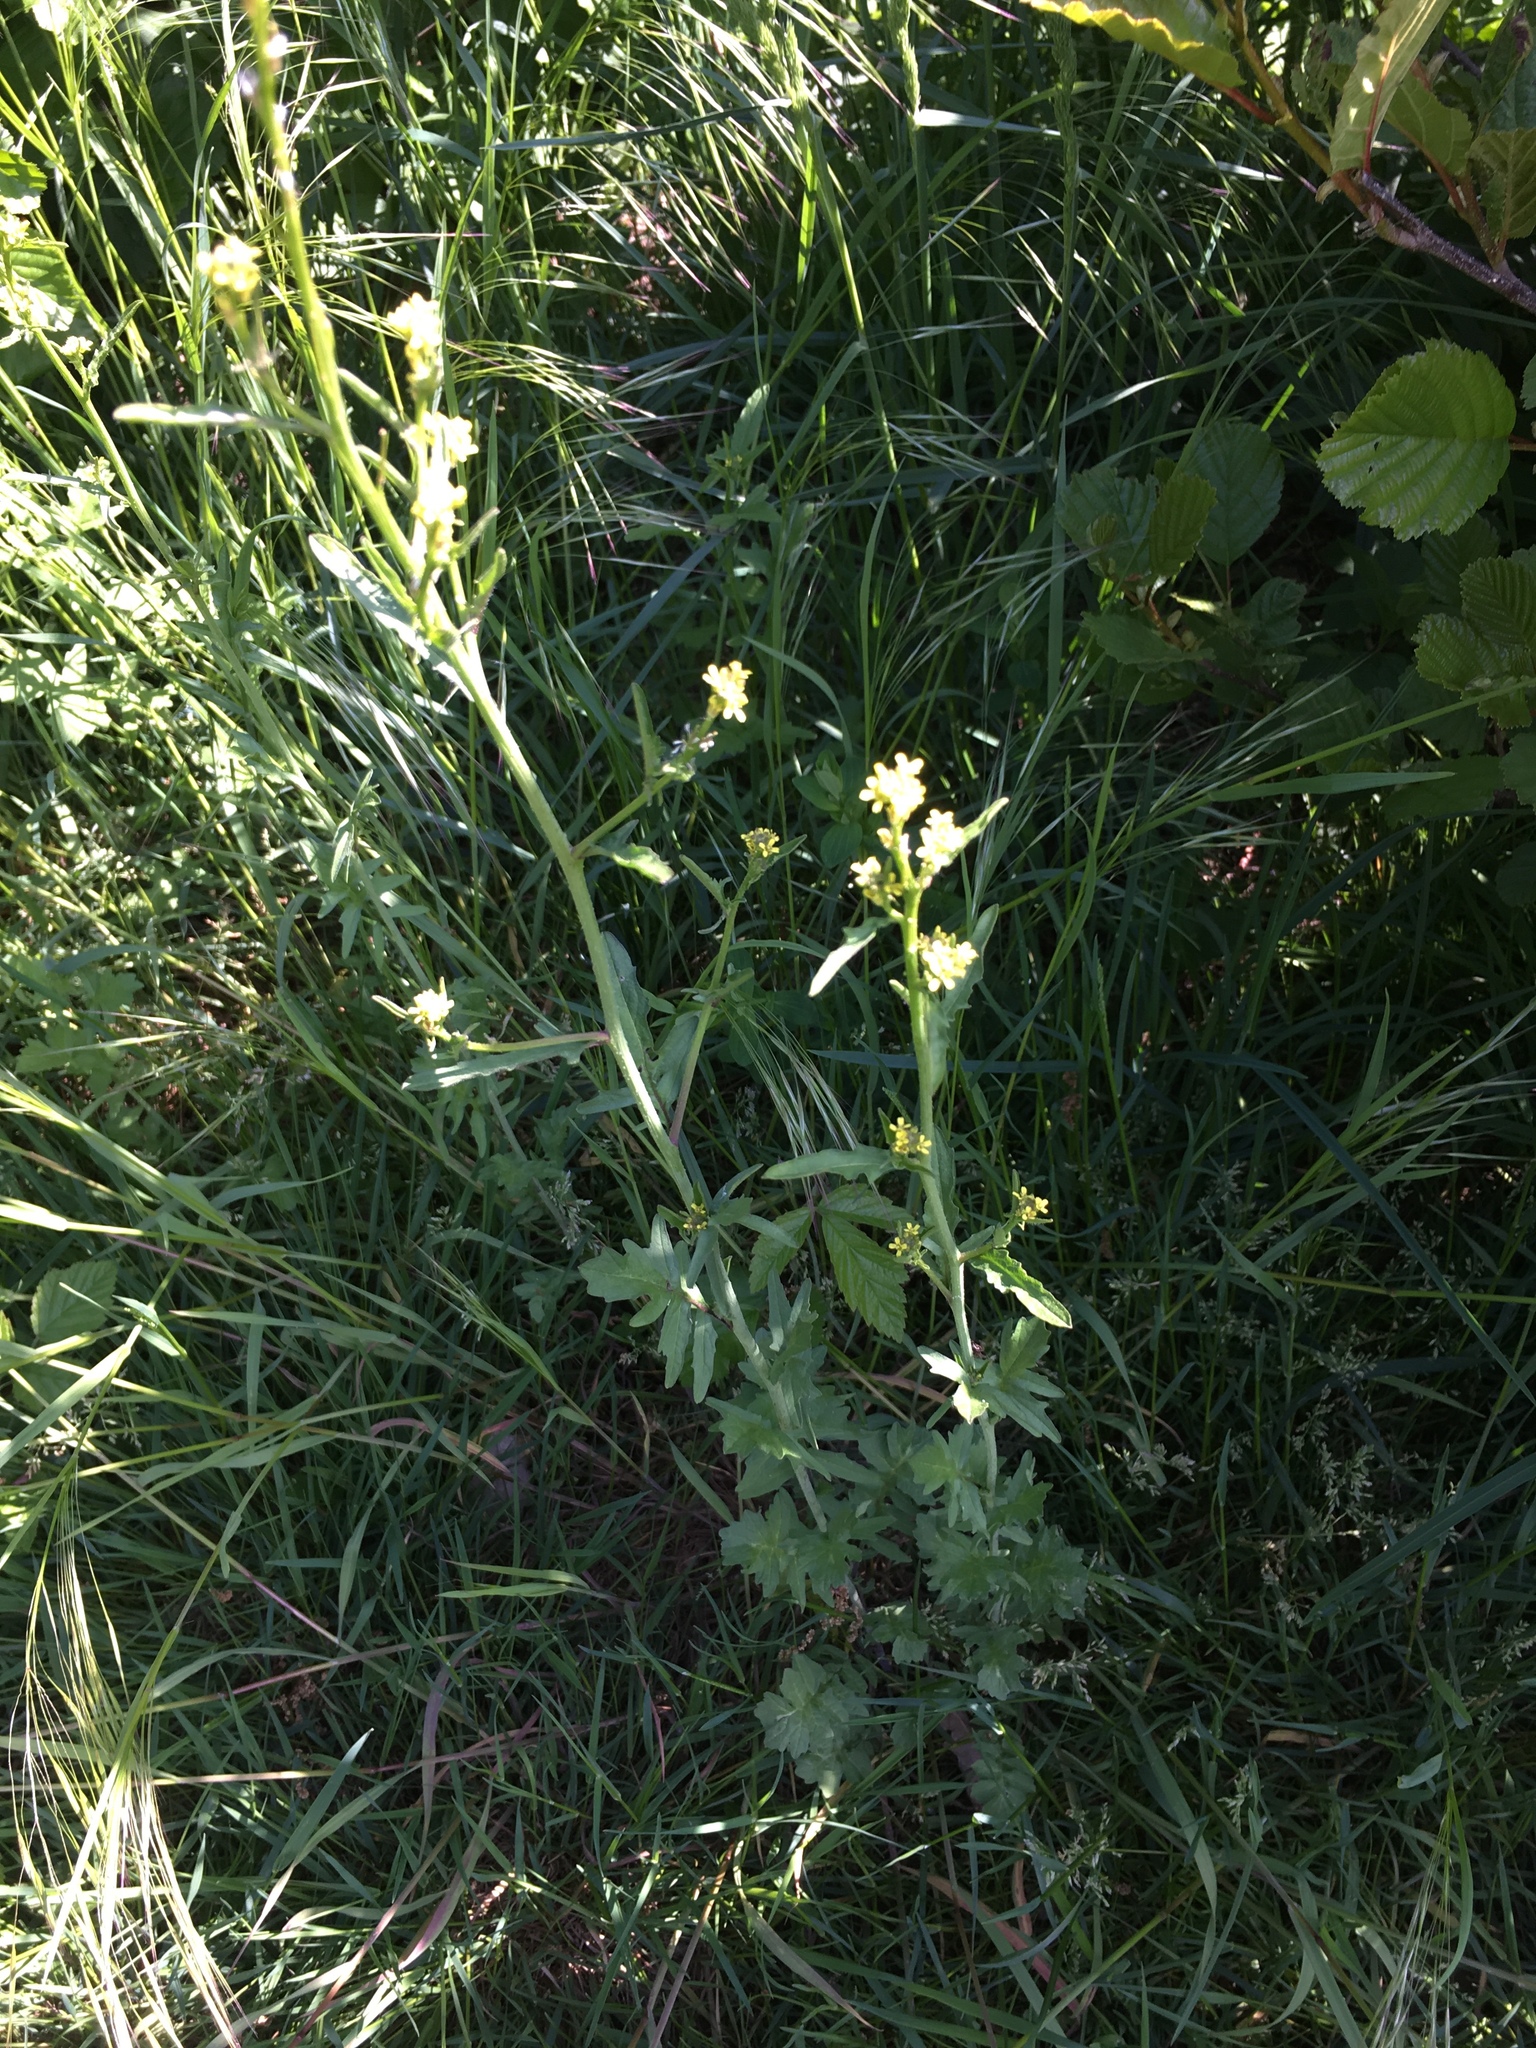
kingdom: Plantae
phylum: Tracheophyta
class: Magnoliopsida
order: Brassicales
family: Brassicaceae
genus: Sisymbrium
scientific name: Sisymbrium officinale
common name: Hedge mustard
